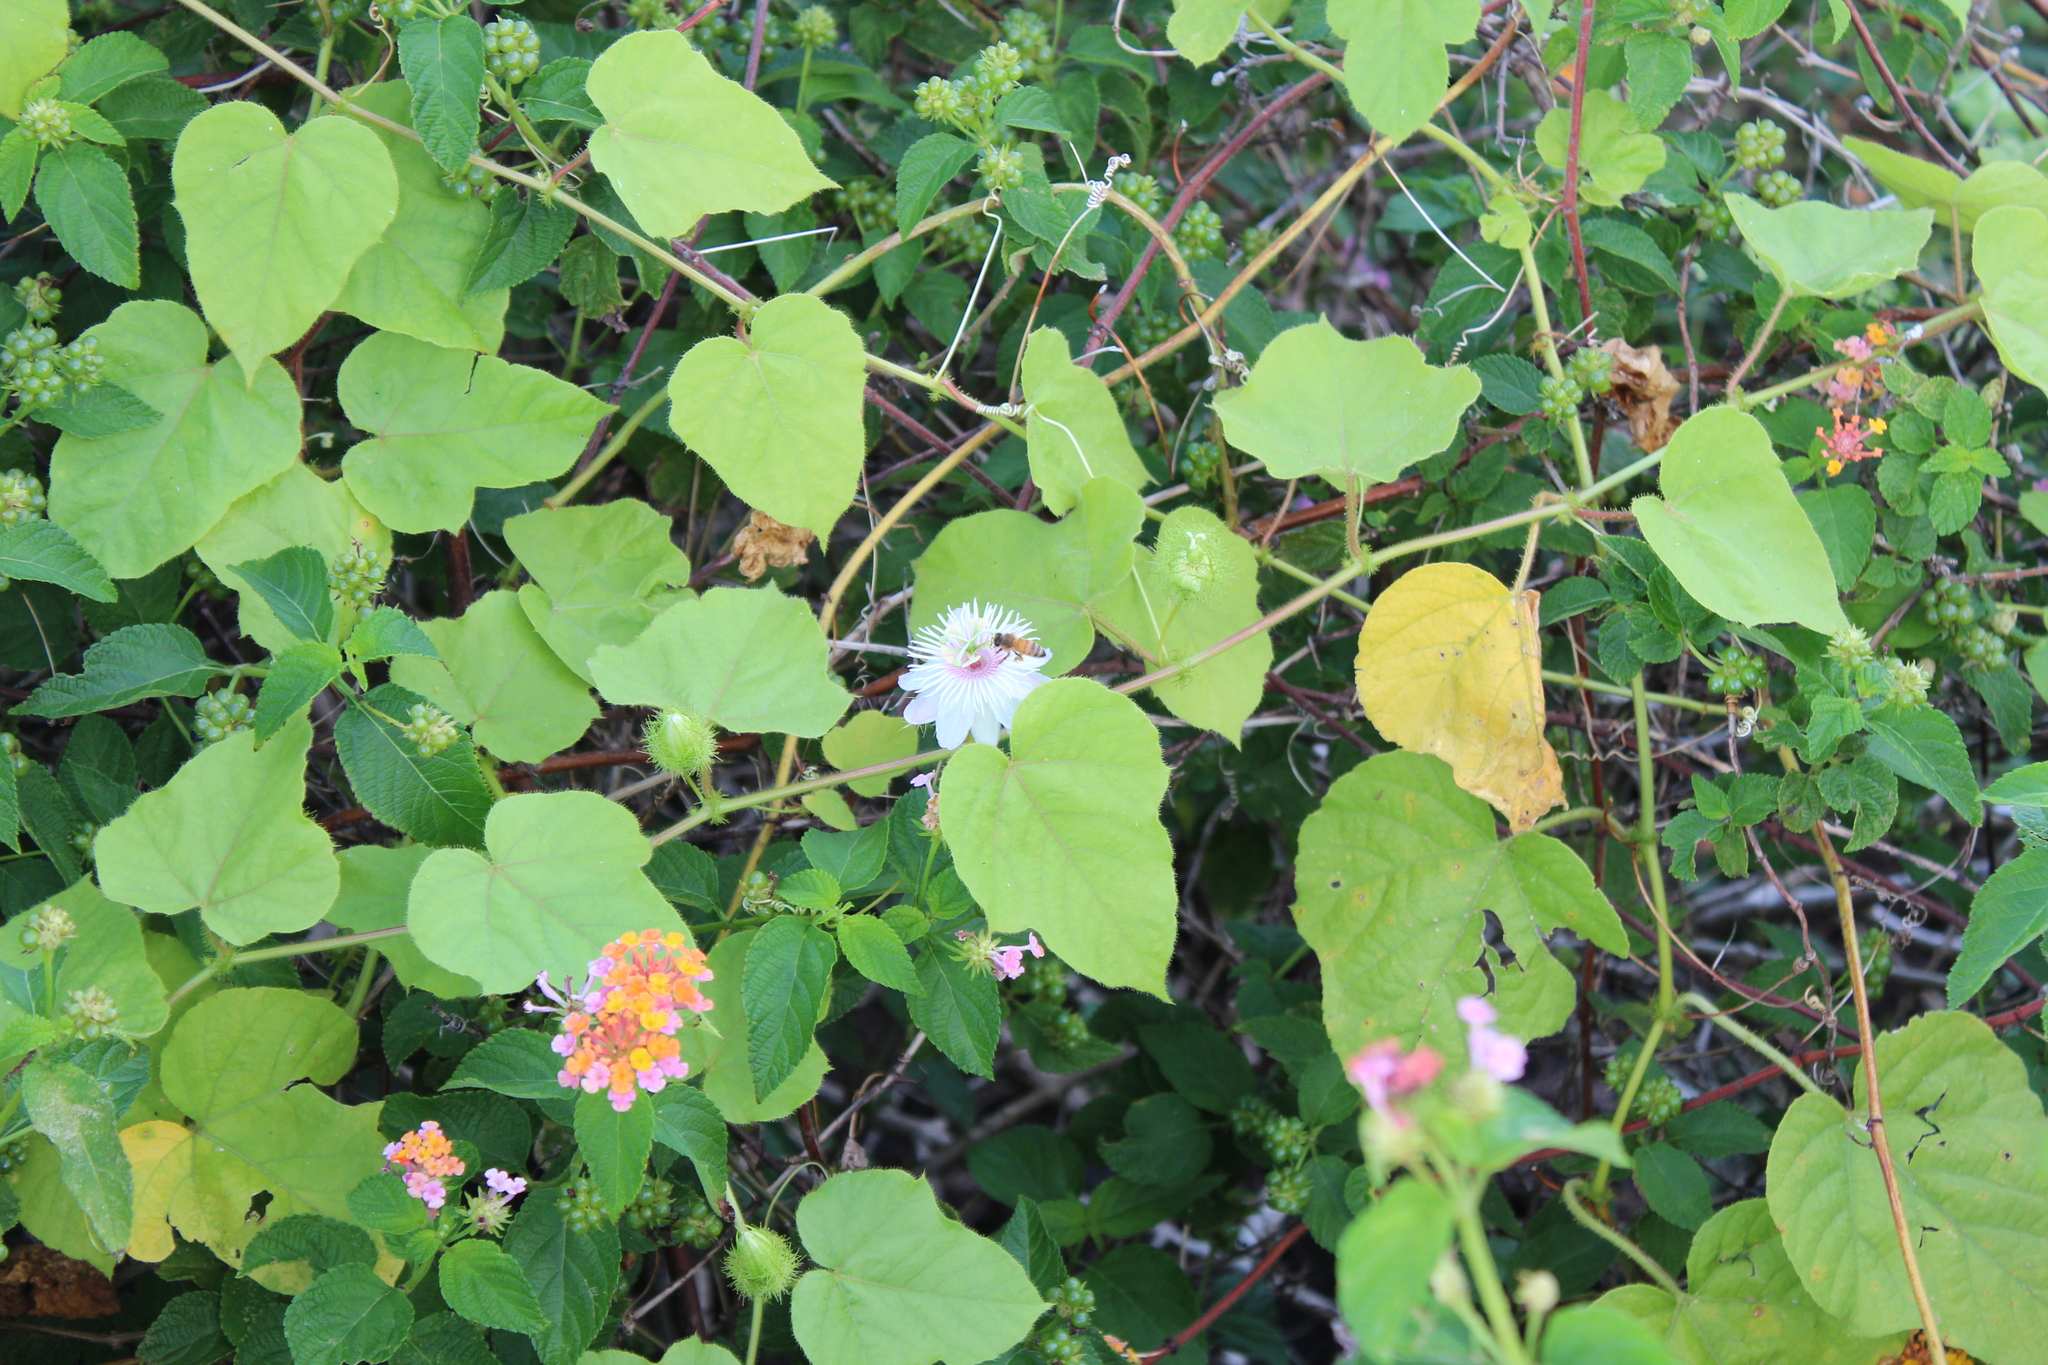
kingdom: Plantae
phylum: Tracheophyta
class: Magnoliopsida
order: Malpighiales
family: Passifloraceae
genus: Passiflora
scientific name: Passiflora vesicaria
